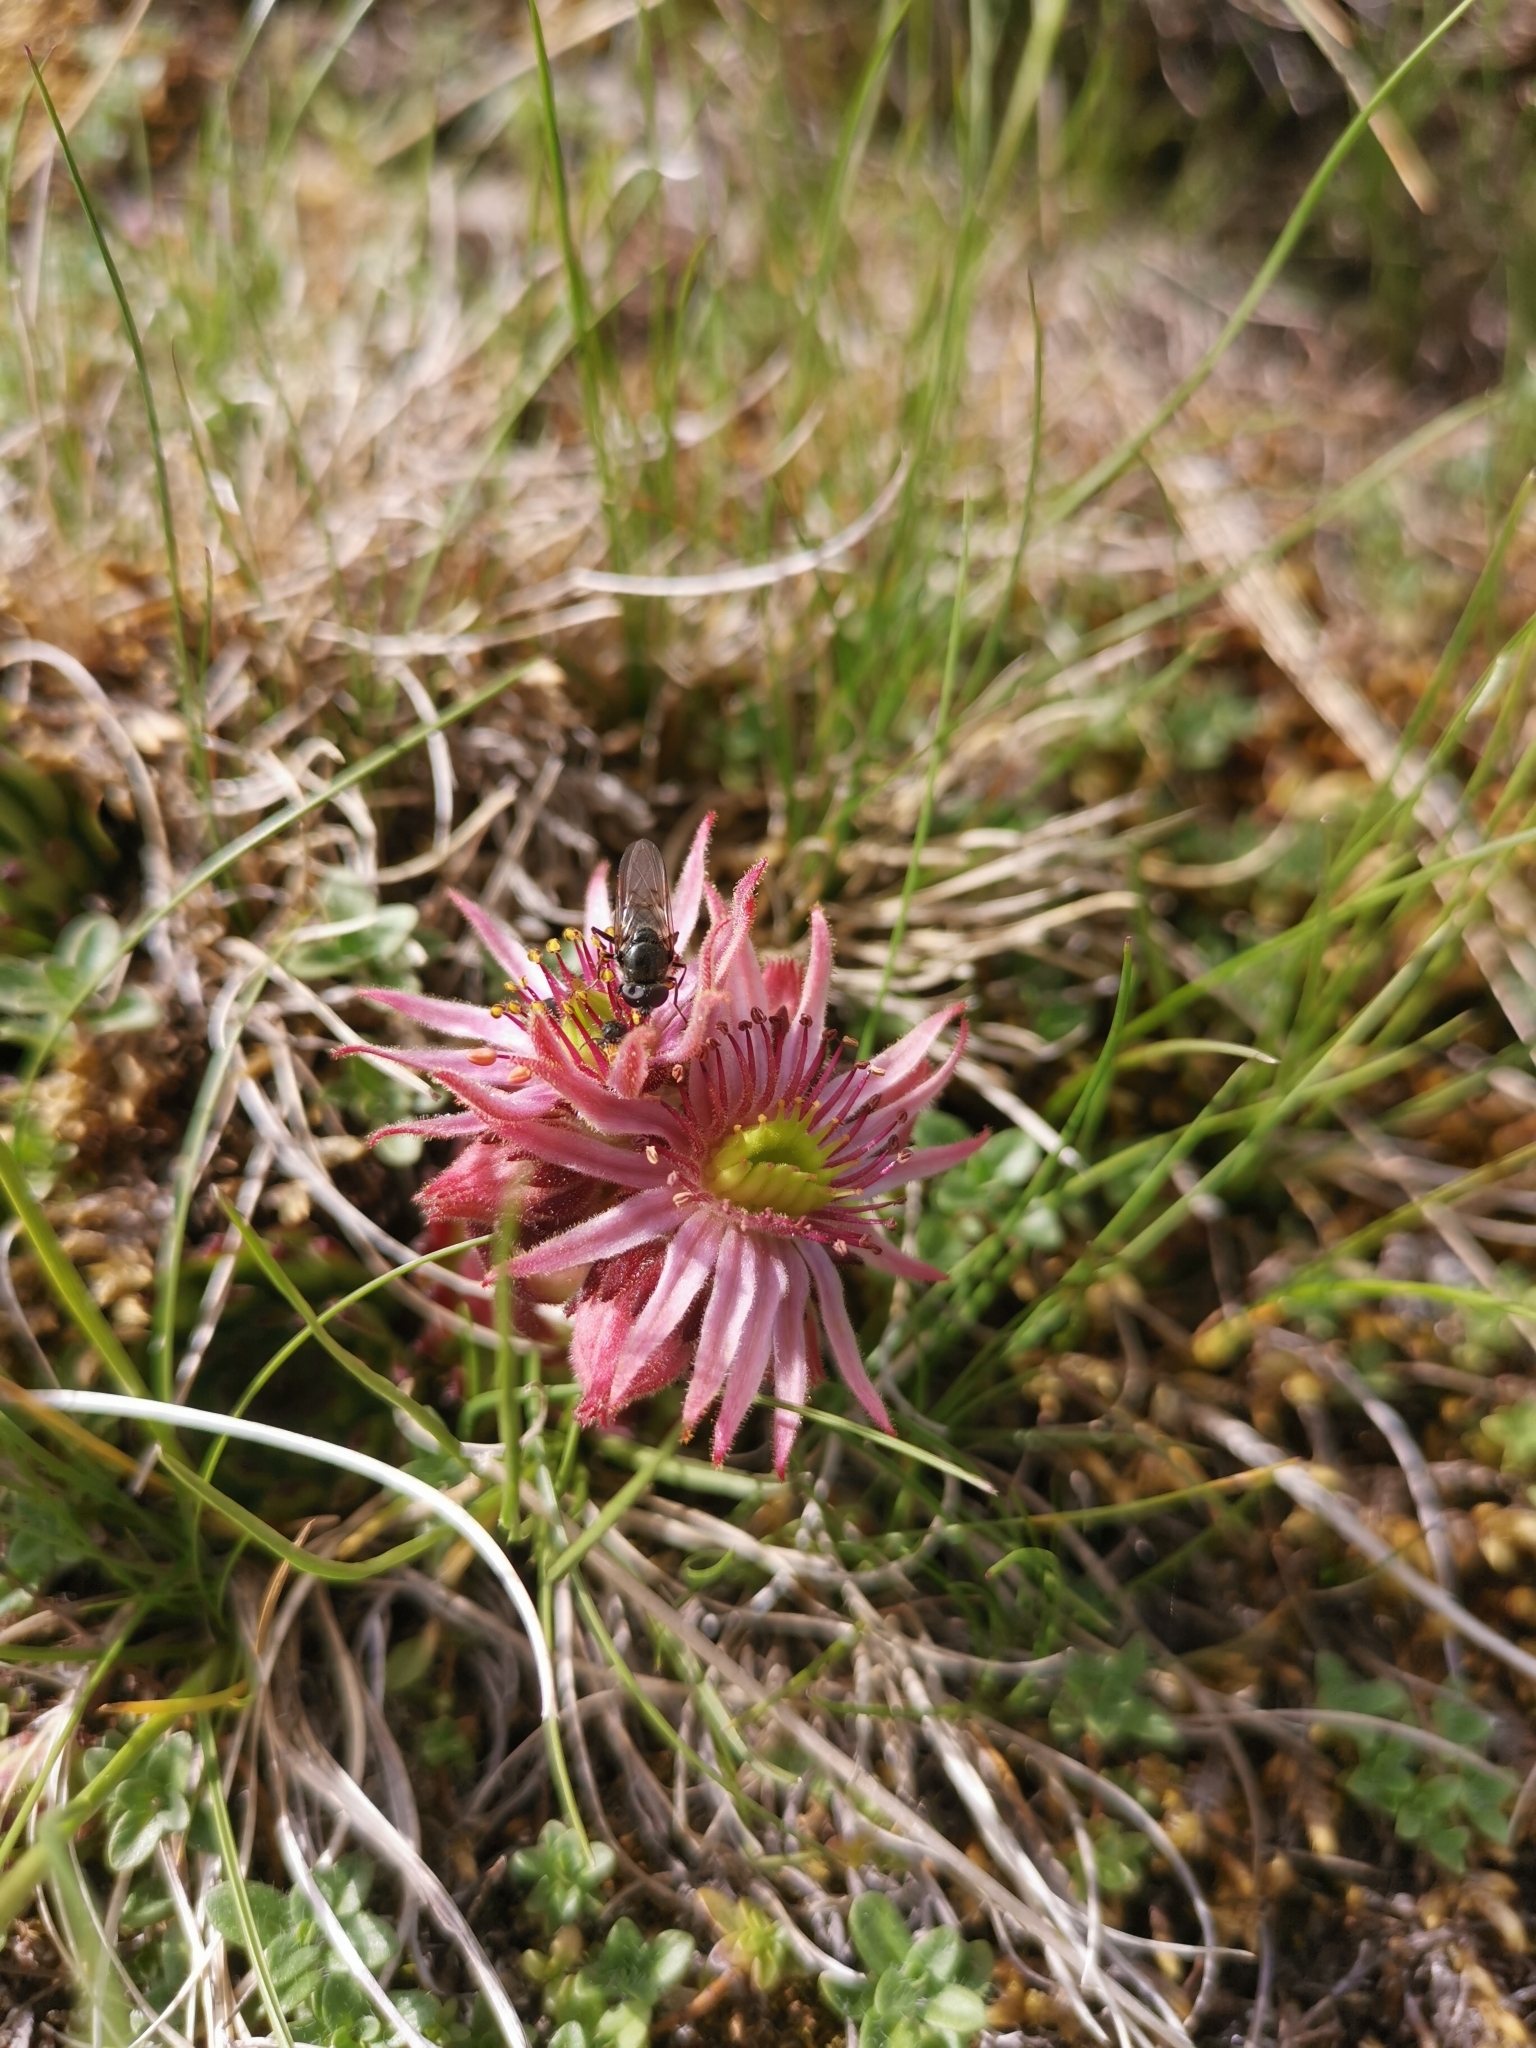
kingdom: Plantae
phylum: Tracheophyta
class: Magnoliopsida
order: Saxifragales
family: Crassulaceae
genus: Sempervivum
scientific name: Sempervivum montanum
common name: Mountain house-leek
